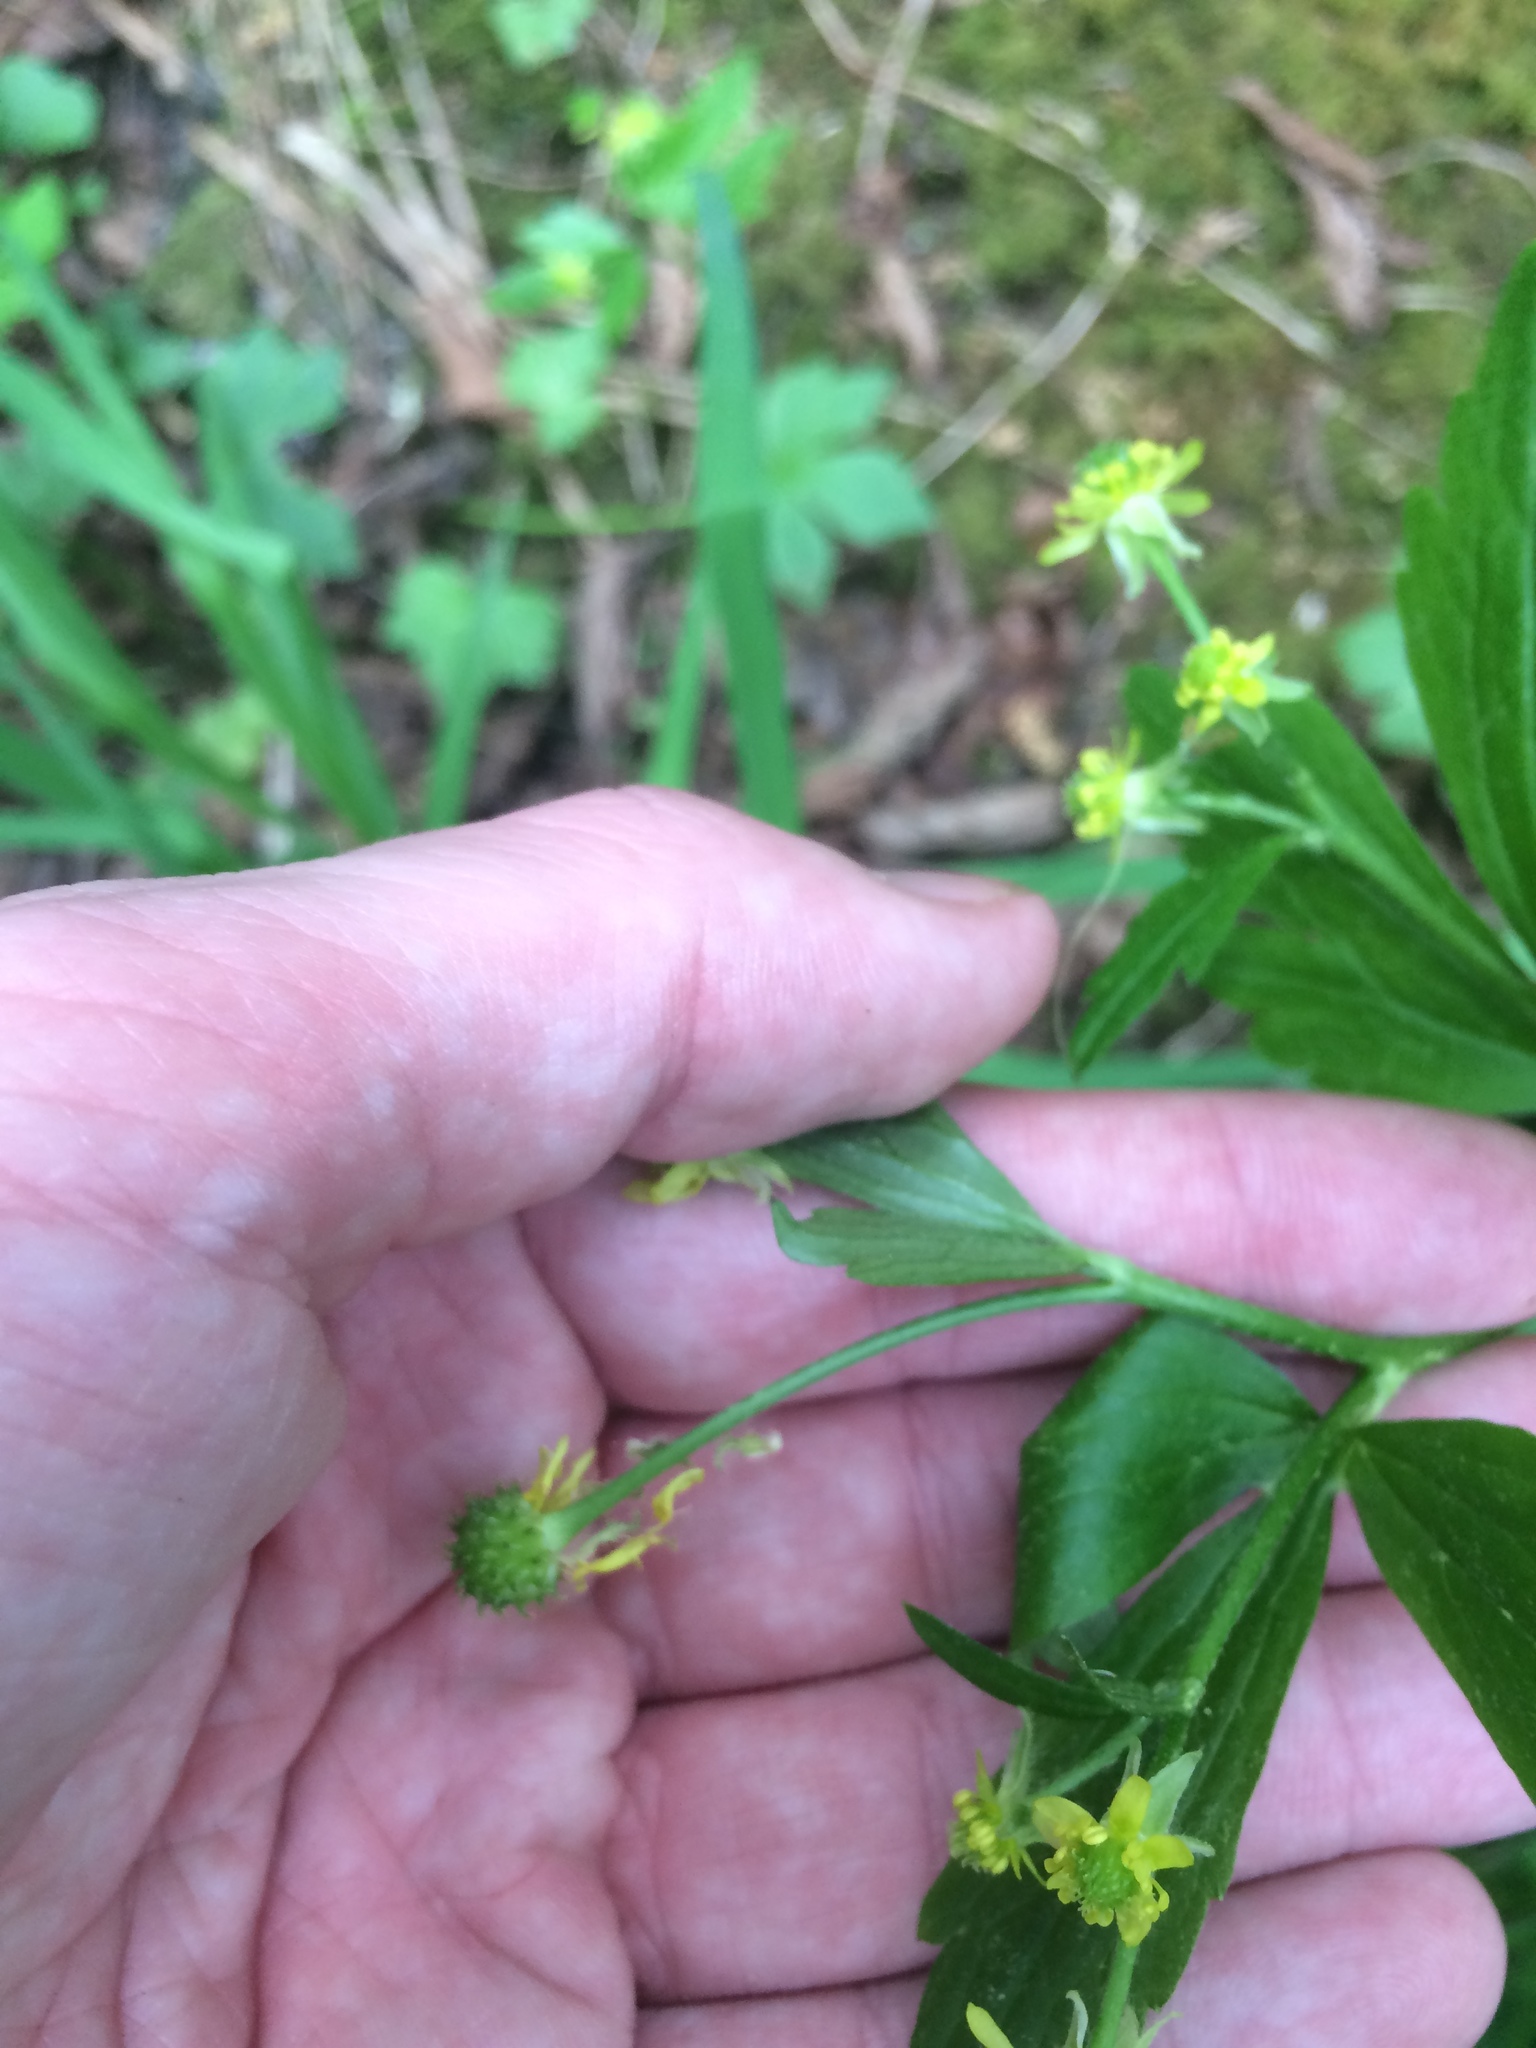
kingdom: Plantae
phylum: Tracheophyta
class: Magnoliopsida
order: Ranunculales
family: Ranunculaceae
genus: Ranunculus
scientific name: Ranunculus recurvatus
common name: Blisterwort
